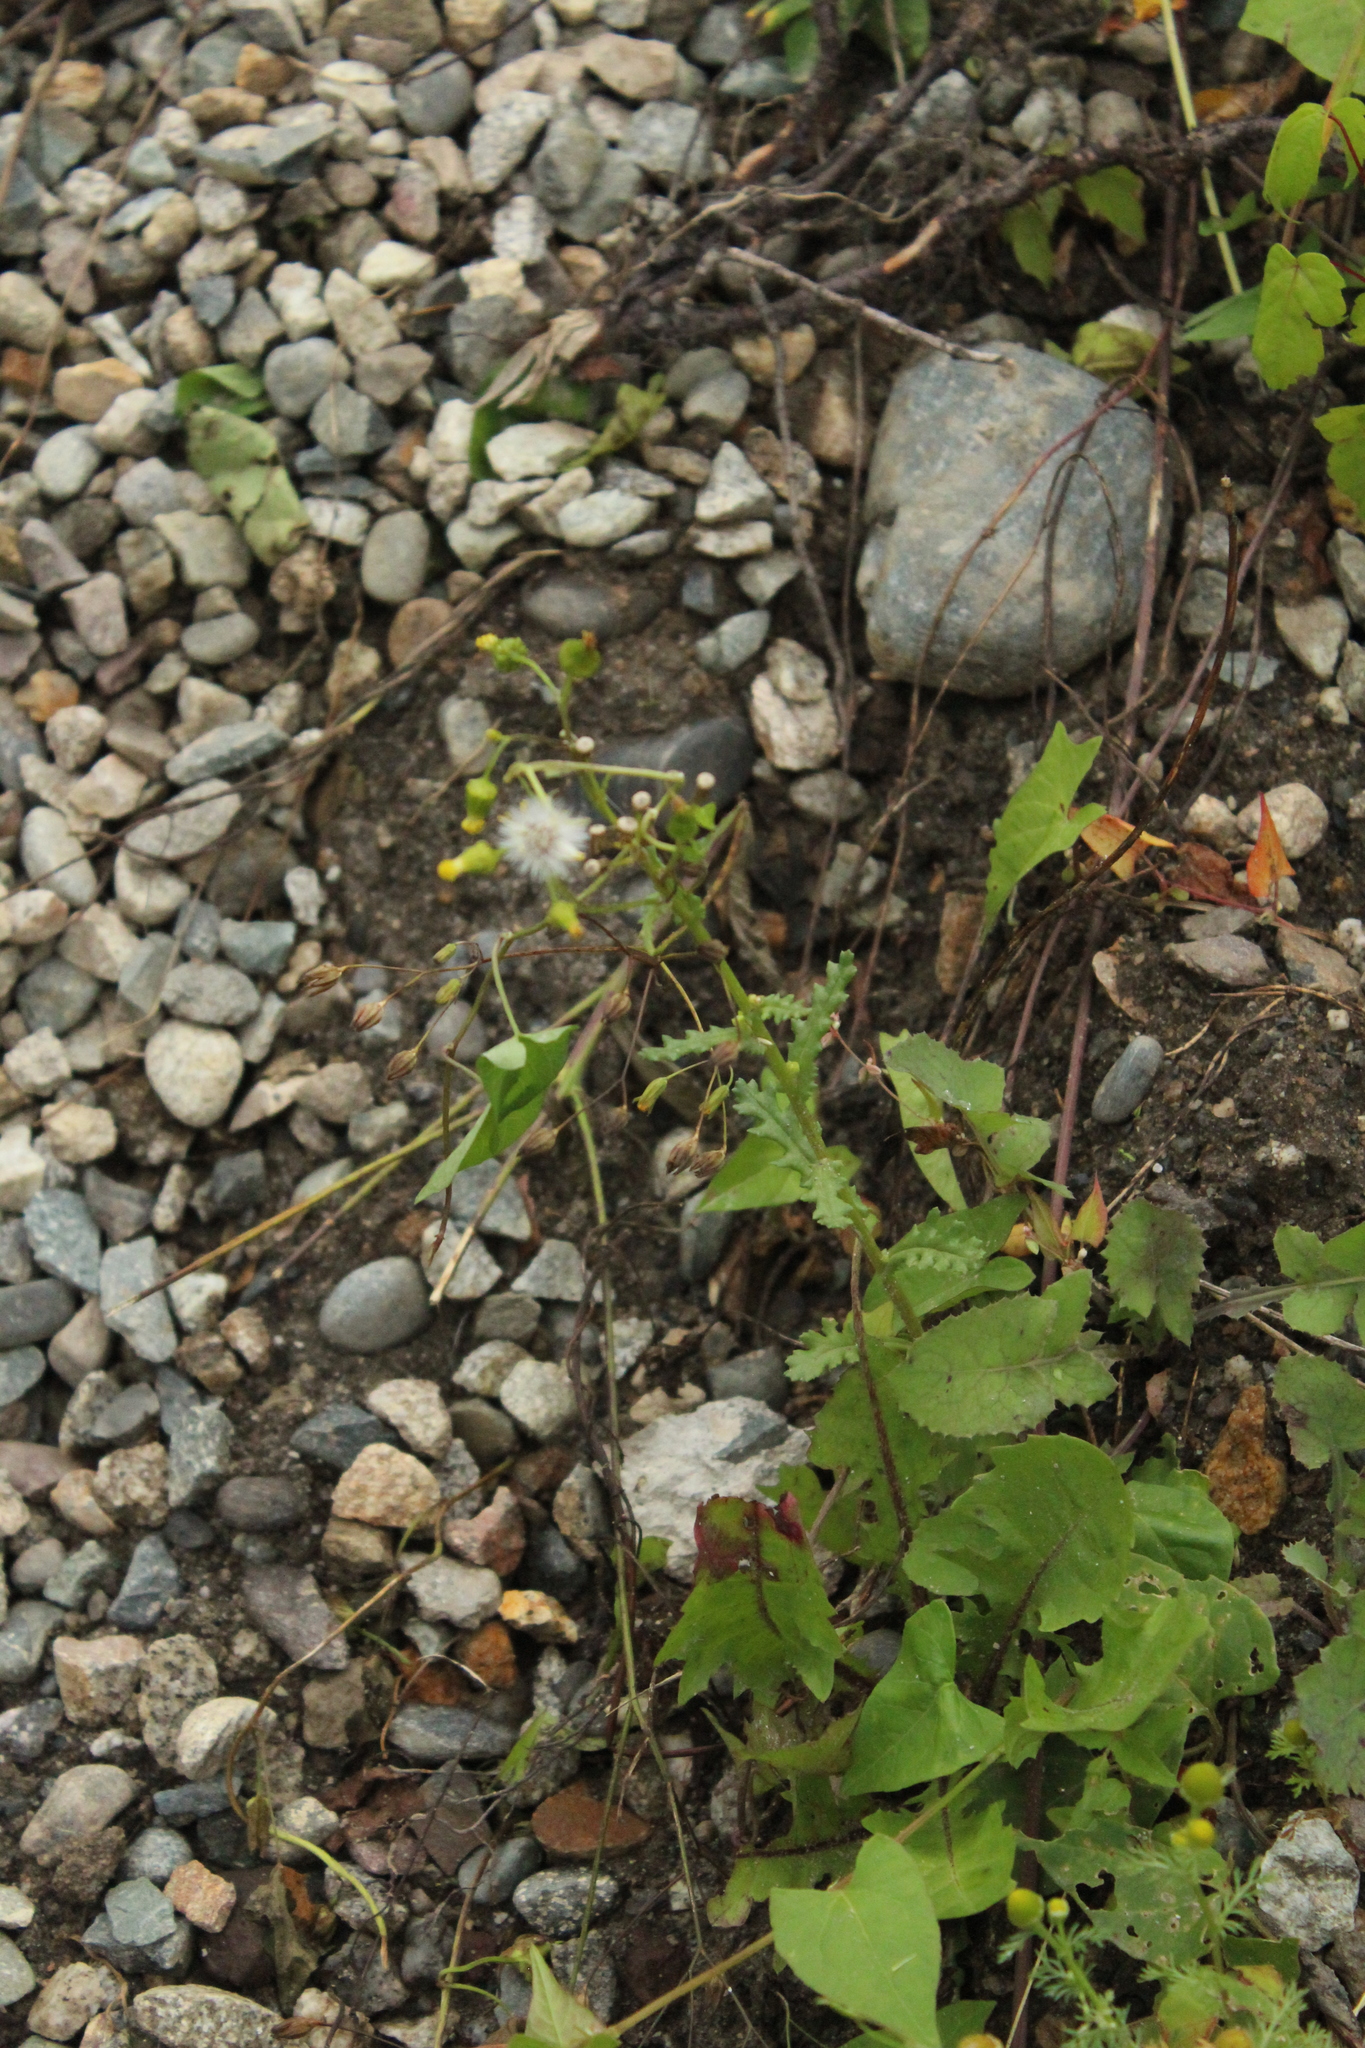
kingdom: Plantae
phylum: Tracheophyta
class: Magnoliopsida
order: Asterales
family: Asteraceae
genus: Senecio
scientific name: Senecio vulgaris
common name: Old-man-in-the-spring
